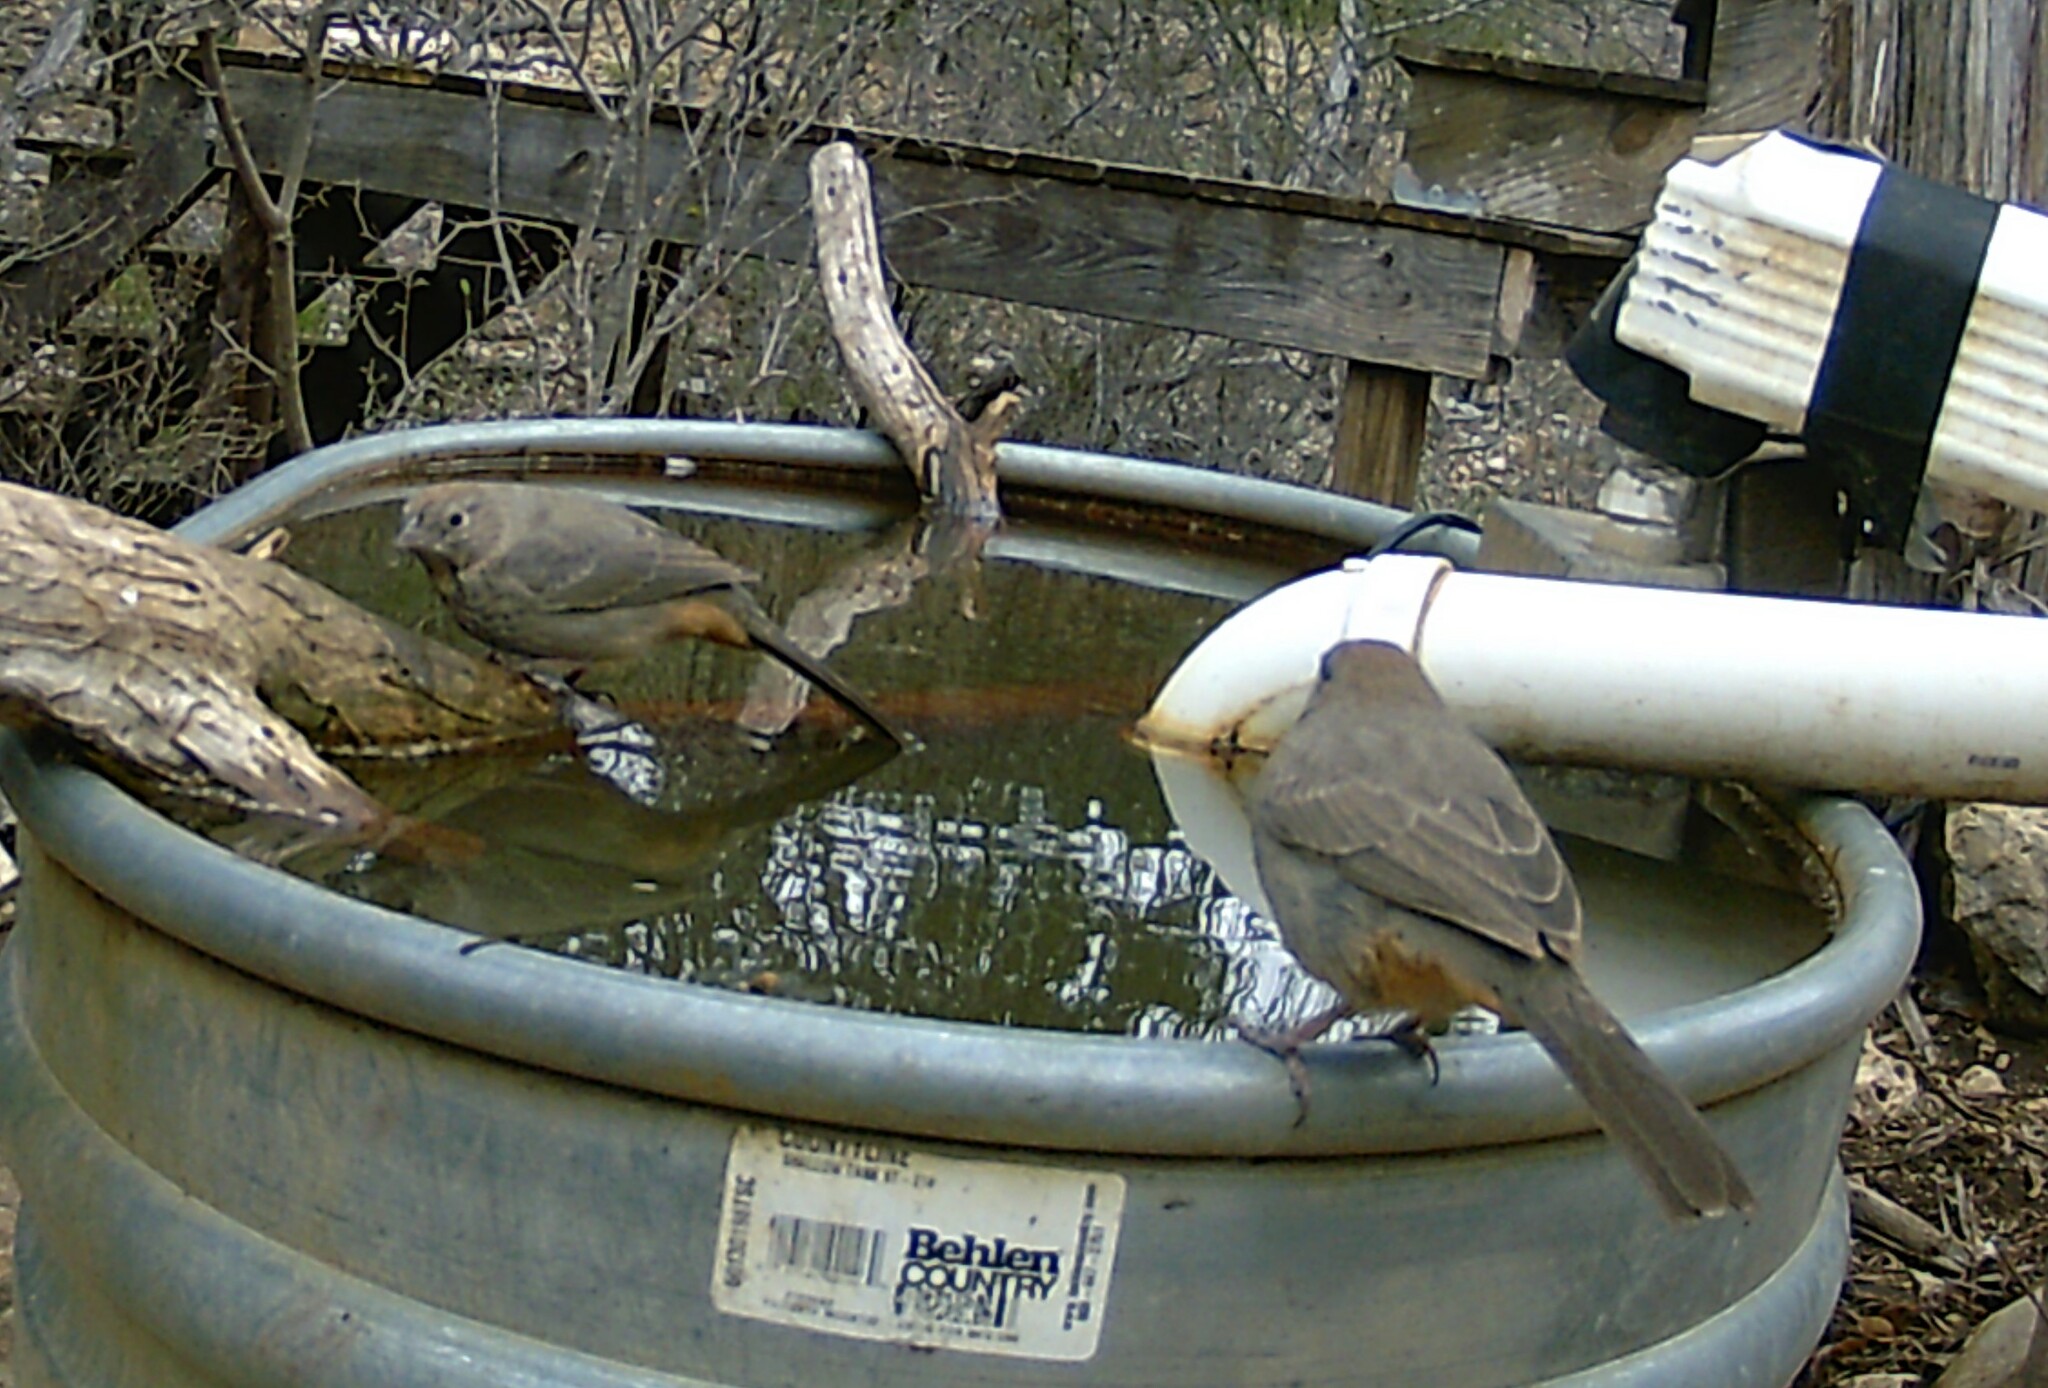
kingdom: Animalia
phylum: Chordata
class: Aves
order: Passeriformes
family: Passerellidae
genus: Melozone
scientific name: Melozone fusca
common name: Canyon towhee
